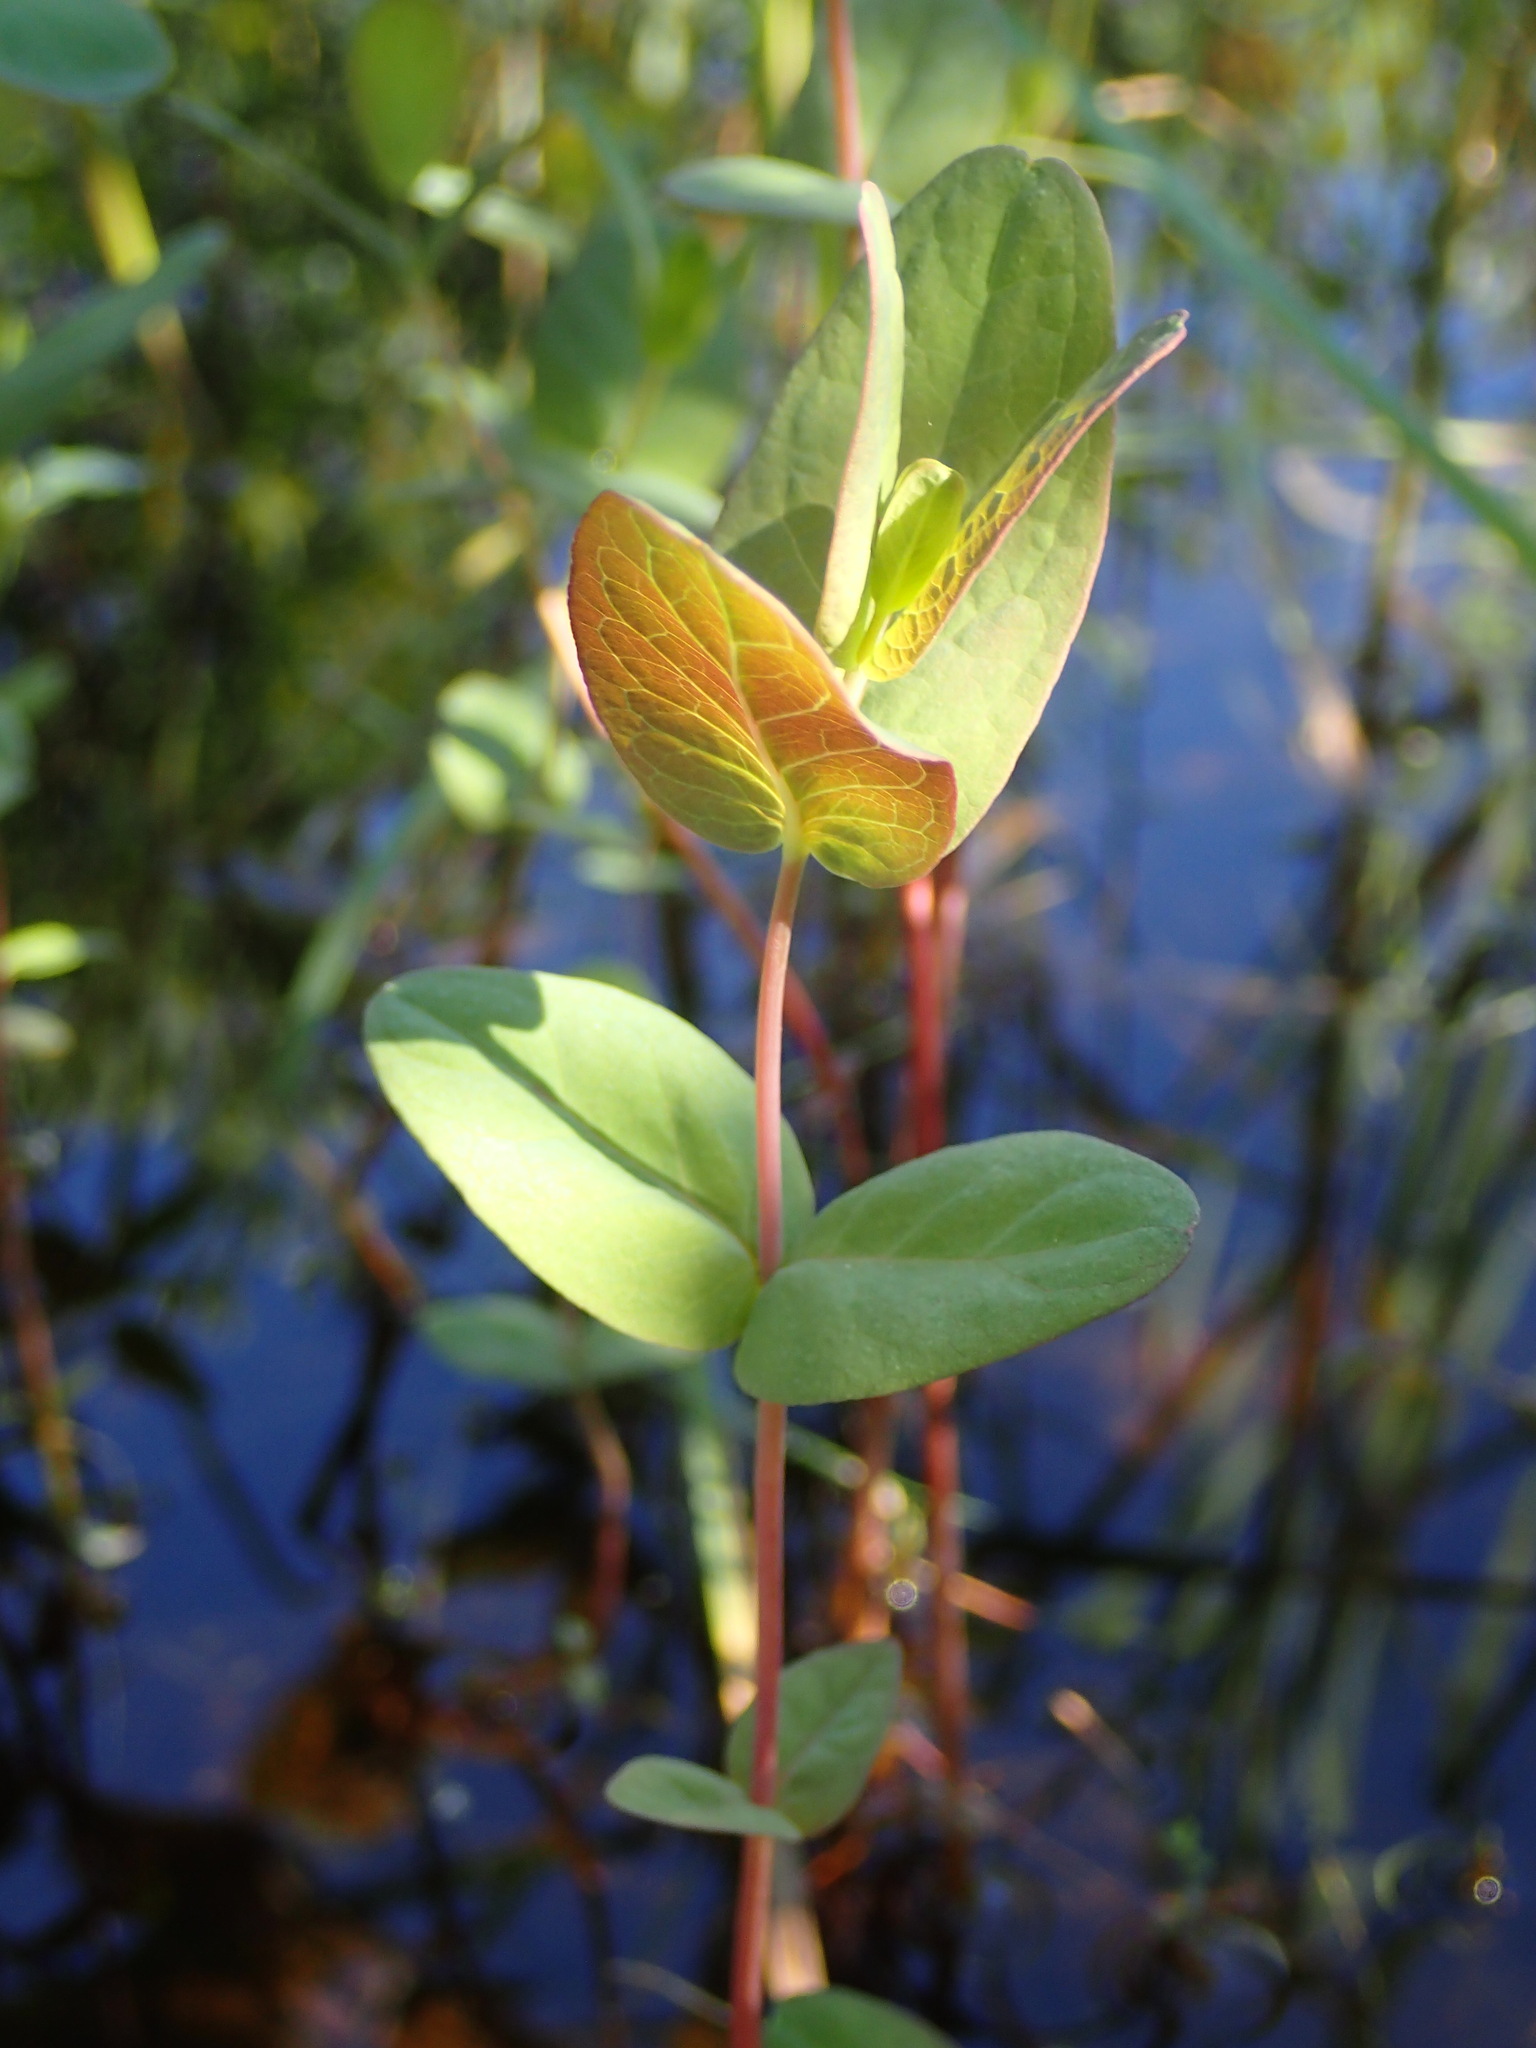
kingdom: Plantae
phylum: Tracheophyta
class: Magnoliopsida
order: Malpighiales
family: Hypericaceae
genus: Triadenum
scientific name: Triadenum fraseri
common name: Fraser's marsh st. johnswort
